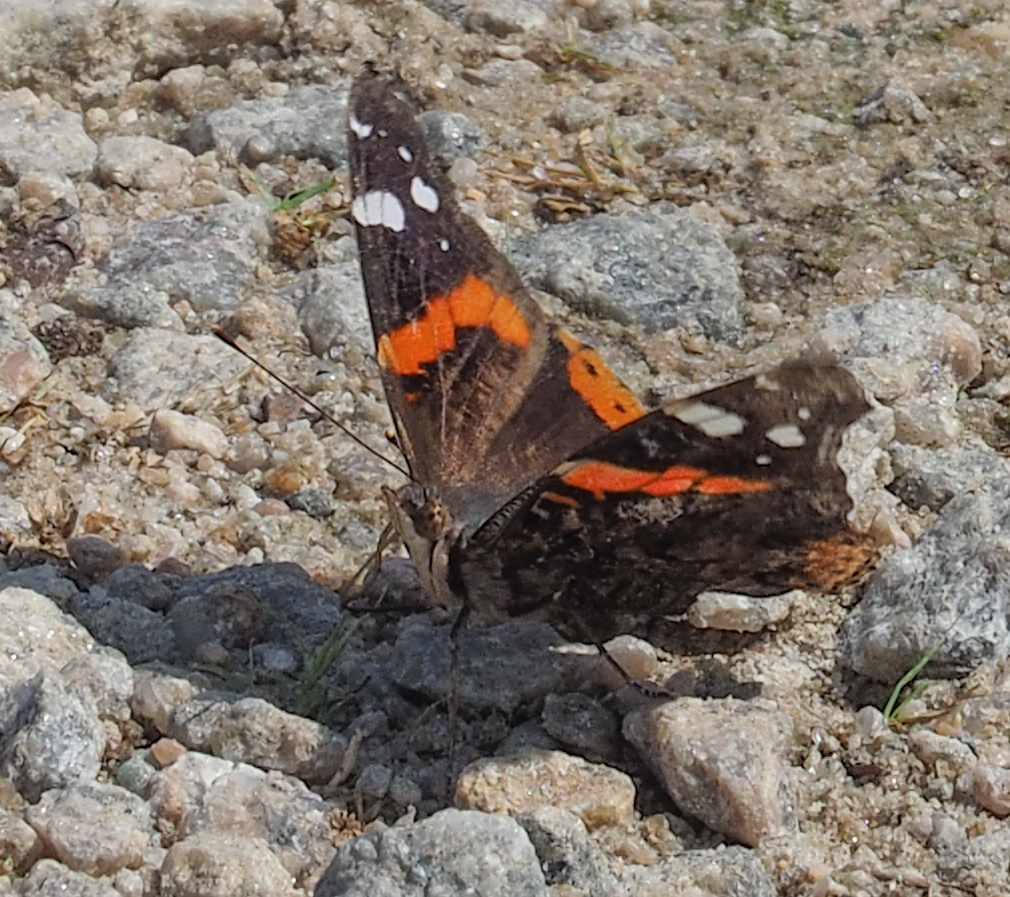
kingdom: Animalia
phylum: Arthropoda
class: Insecta
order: Lepidoptera
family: Nymphalidae
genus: Vanessa
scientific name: Vanessa atalanta
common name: Red admiral
